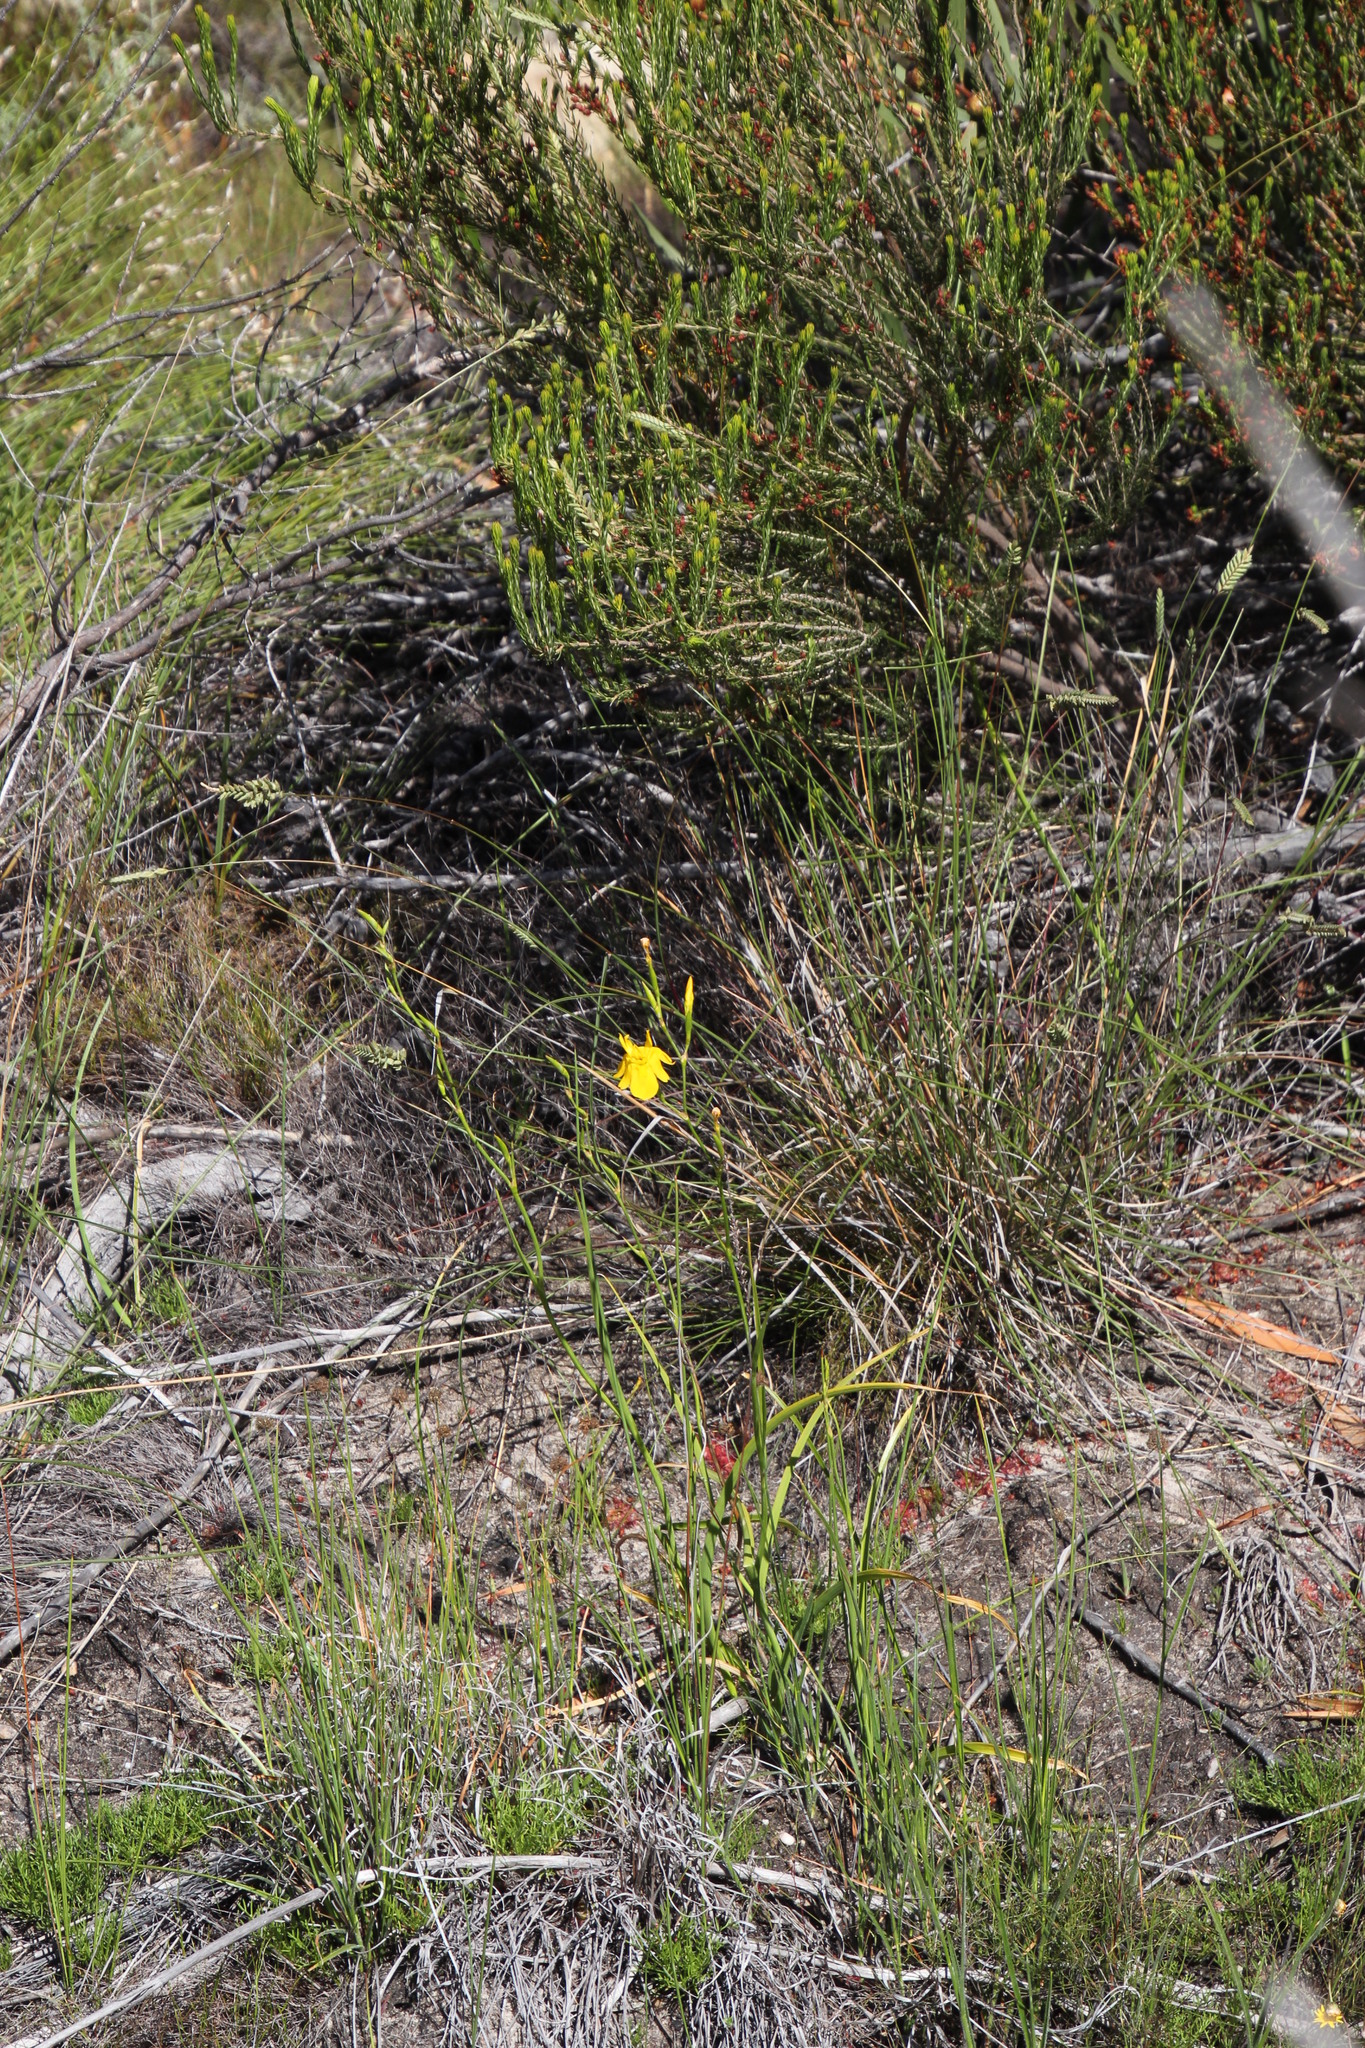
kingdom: Plantae
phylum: Tracheophyta
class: Liliopsida
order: Asparagales
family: Iridaceae
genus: Moraea
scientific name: Moraea ramosissima
